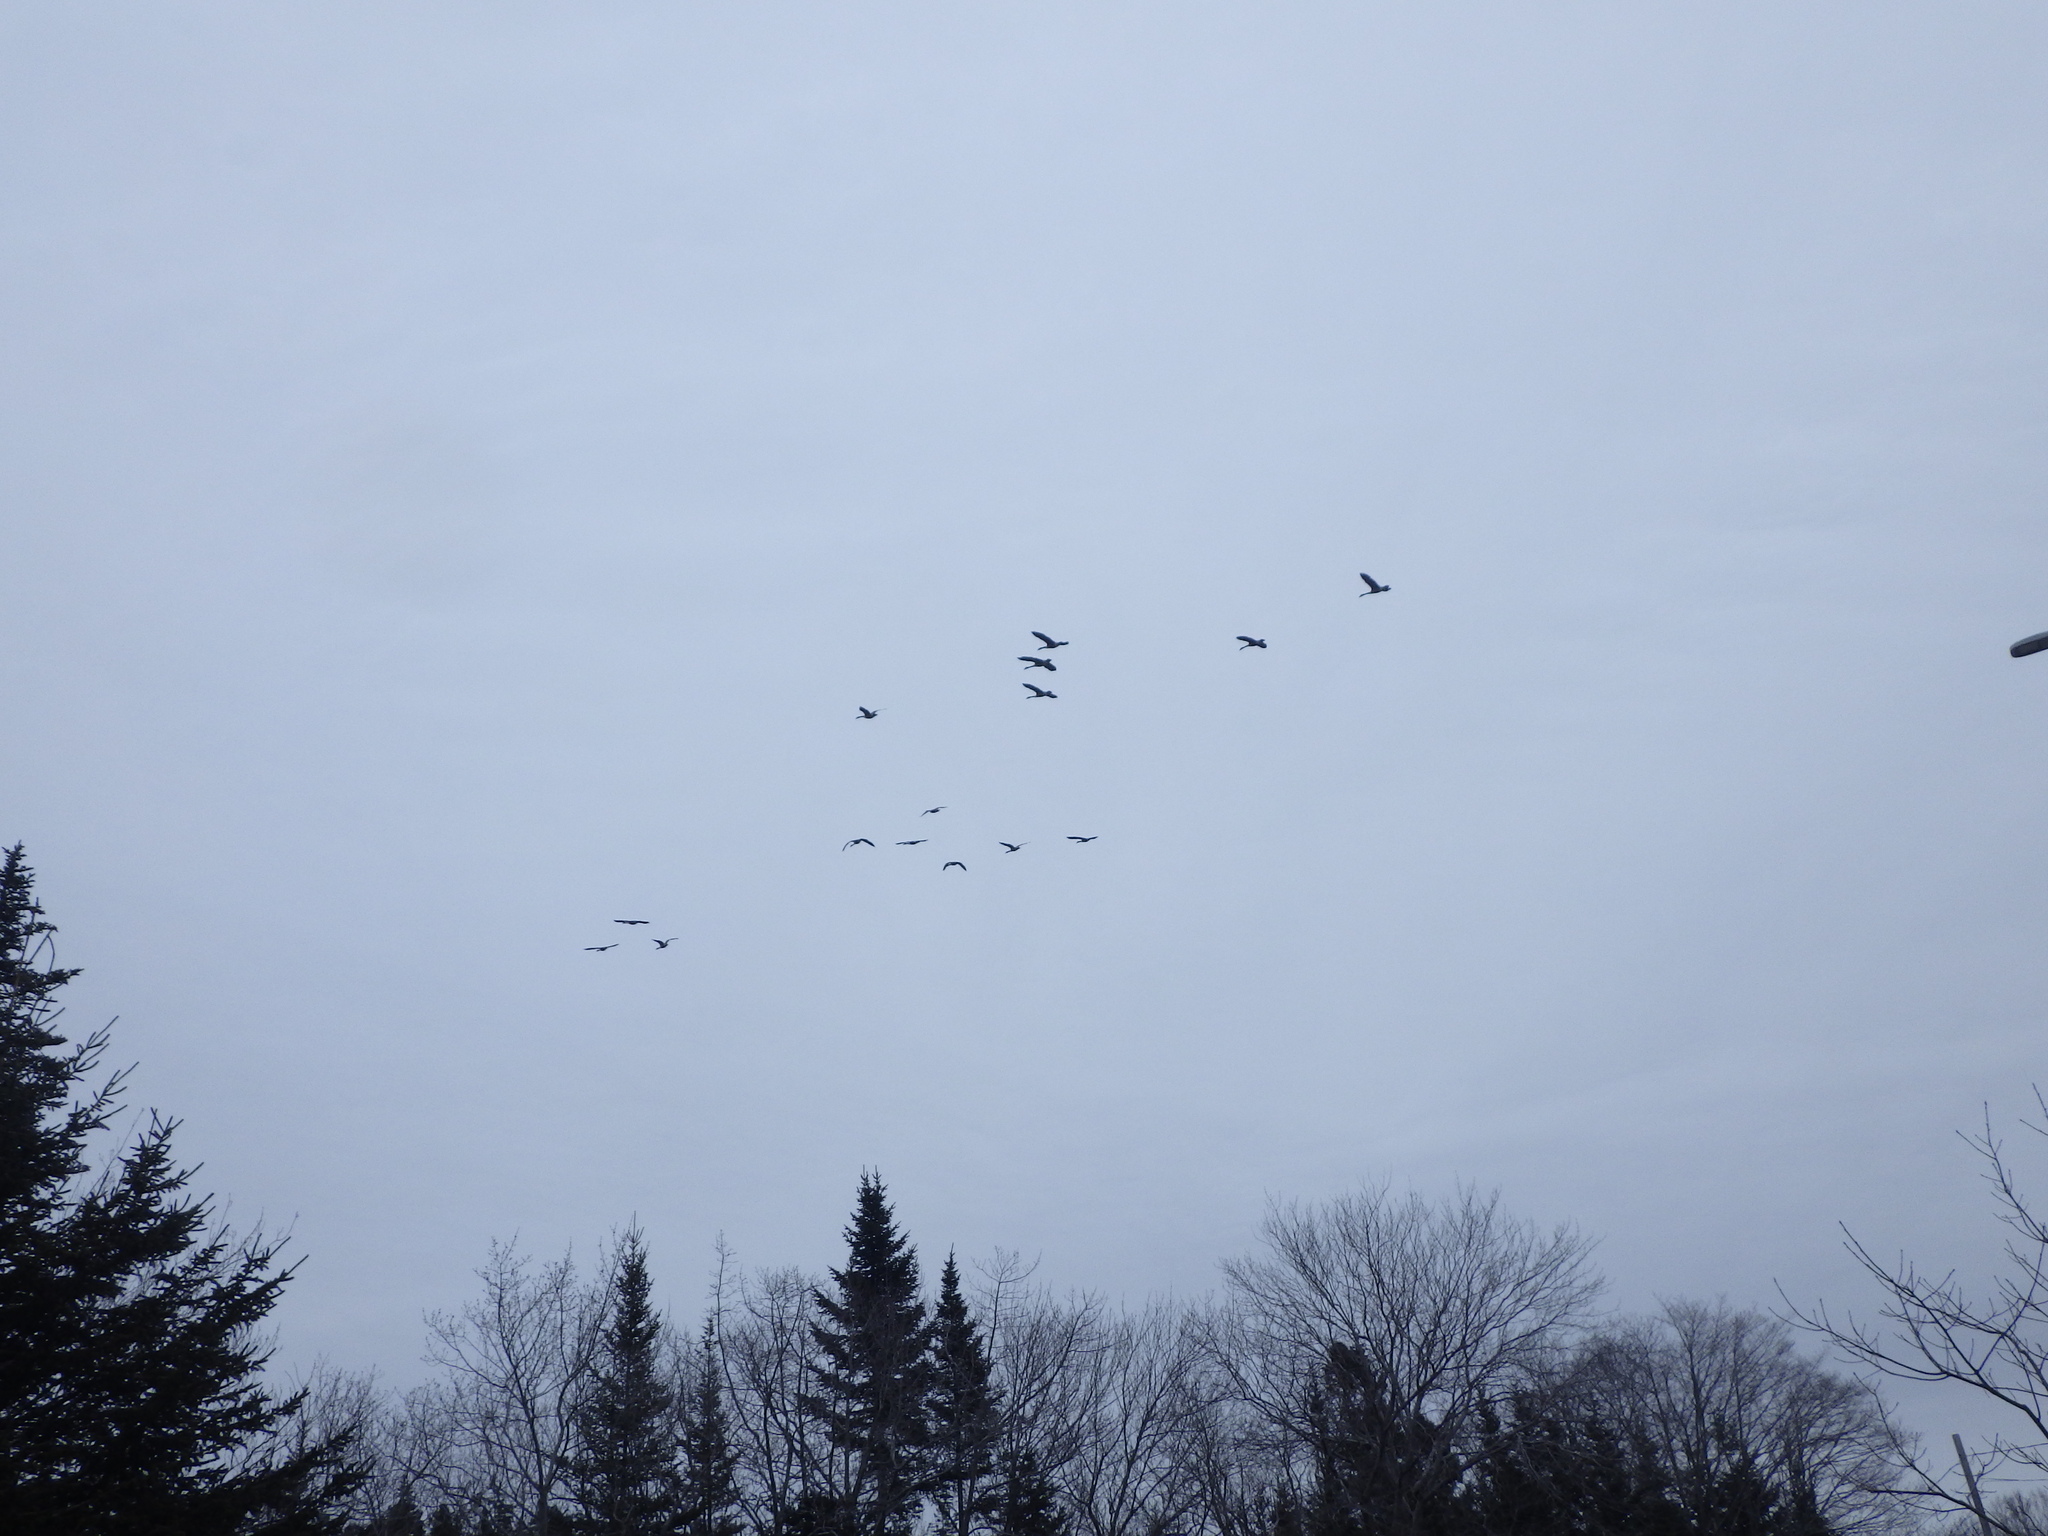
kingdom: Animalia
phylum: Chordata
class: Aves
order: Anseriformes
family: Anatidae
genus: Branta
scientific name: Branta canadensis
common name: Canada goose
